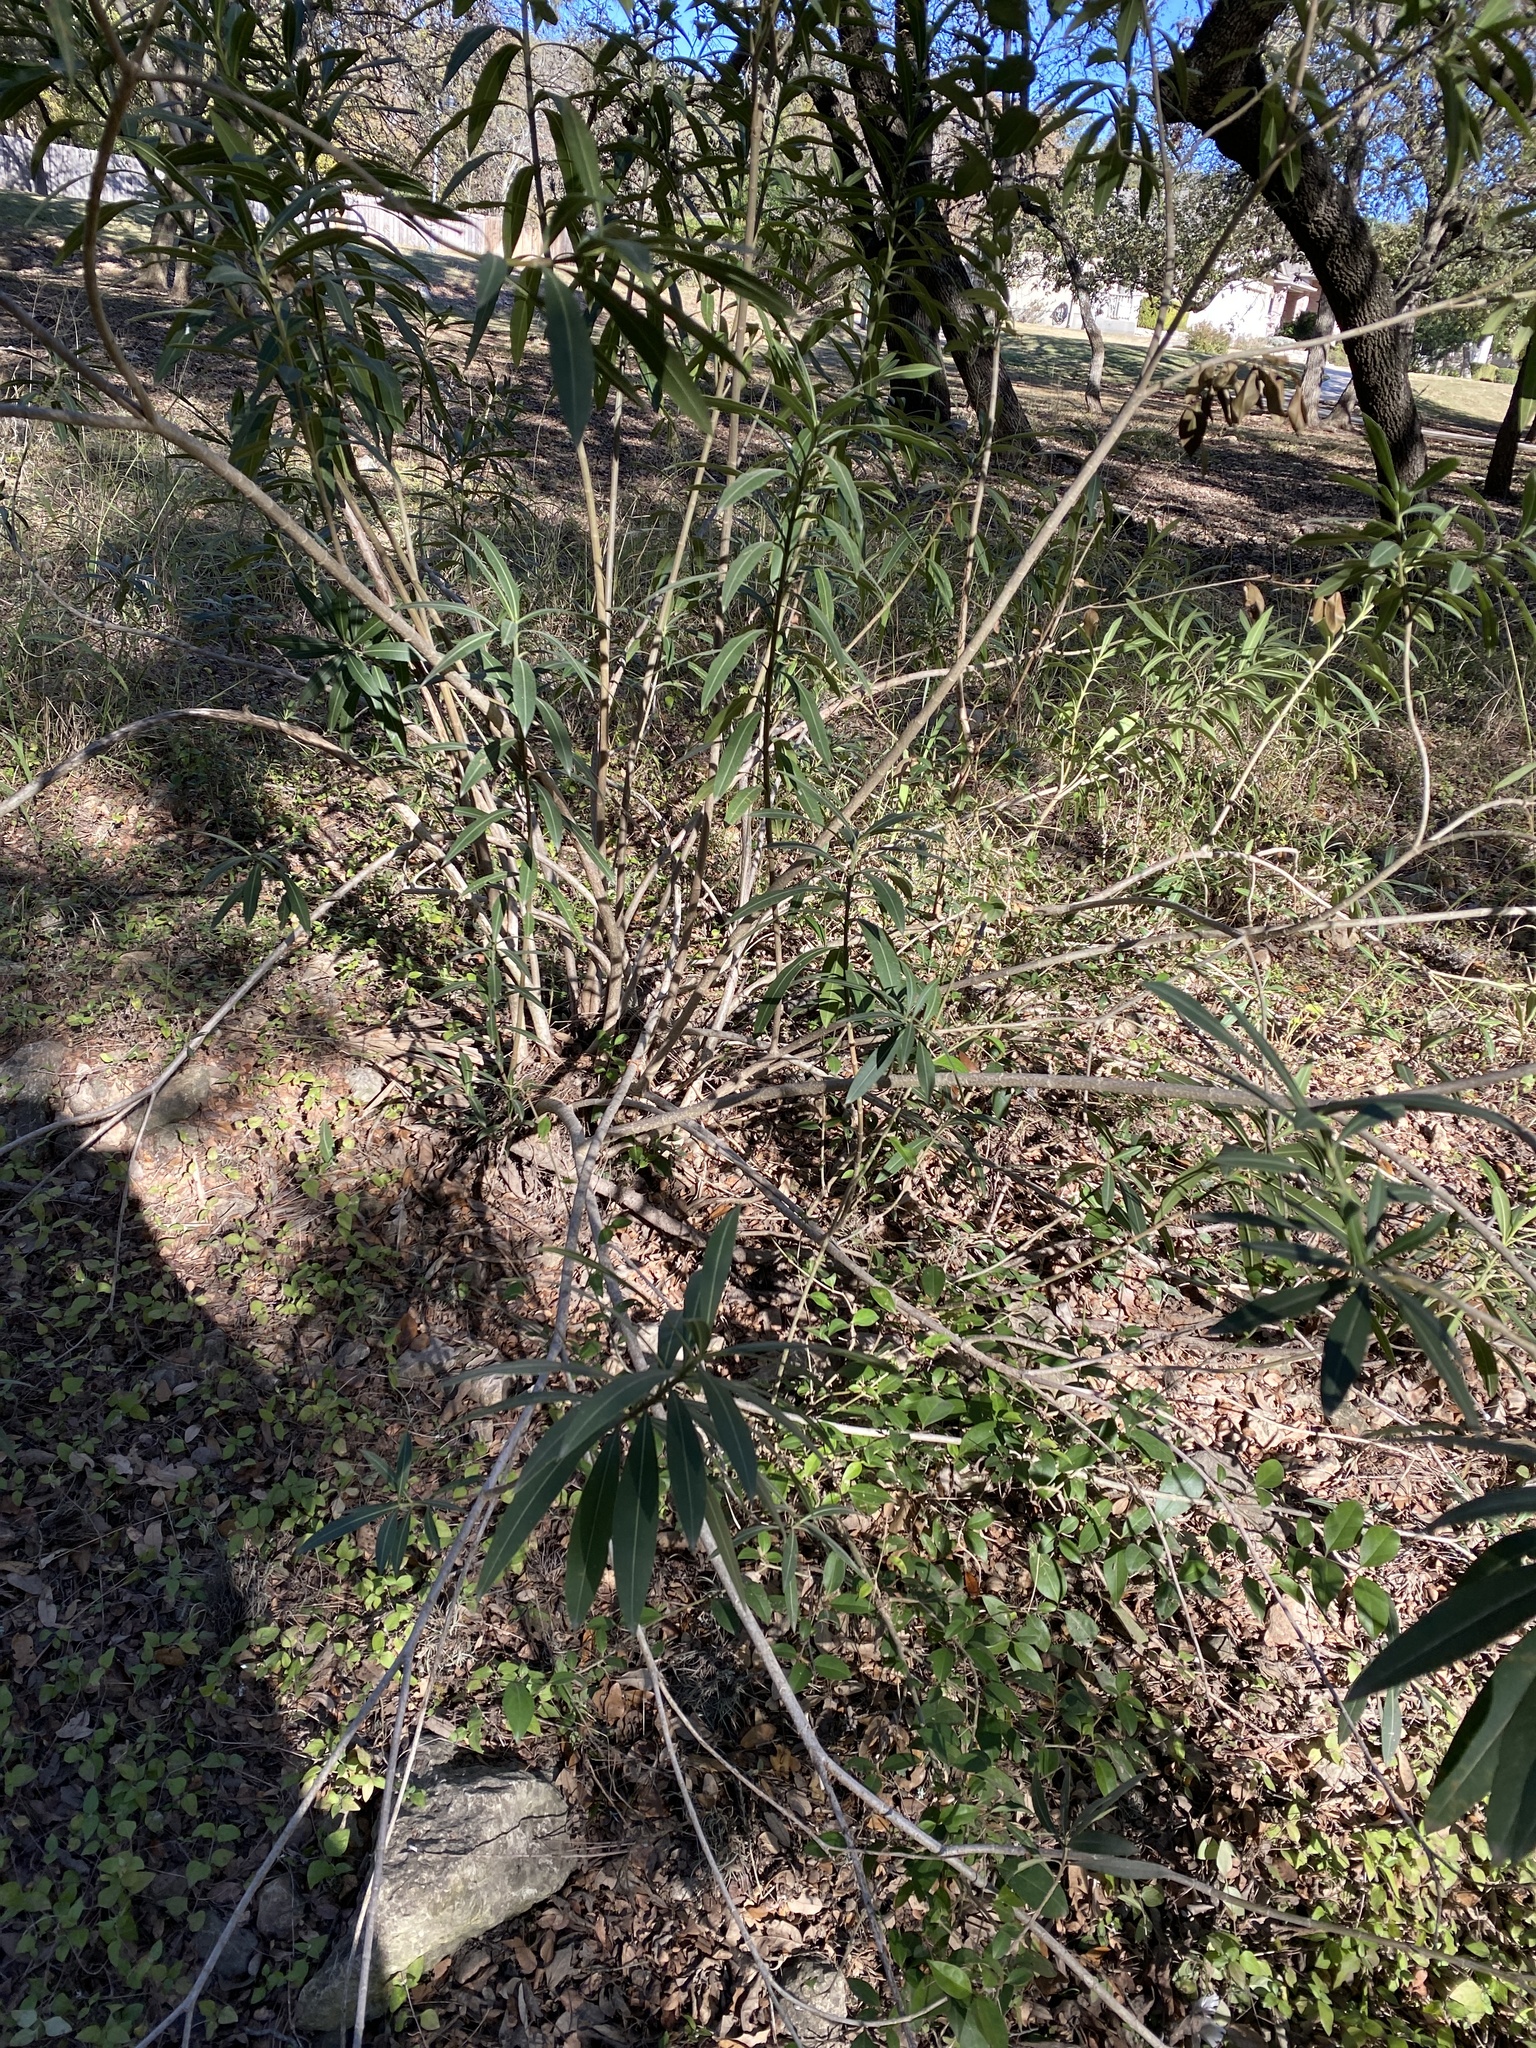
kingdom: Plantae
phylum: Tracheophyta
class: Magnoliopsida
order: Gentianales
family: Apocynaceae
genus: Nerium
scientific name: Nerium oleander
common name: Oleander
